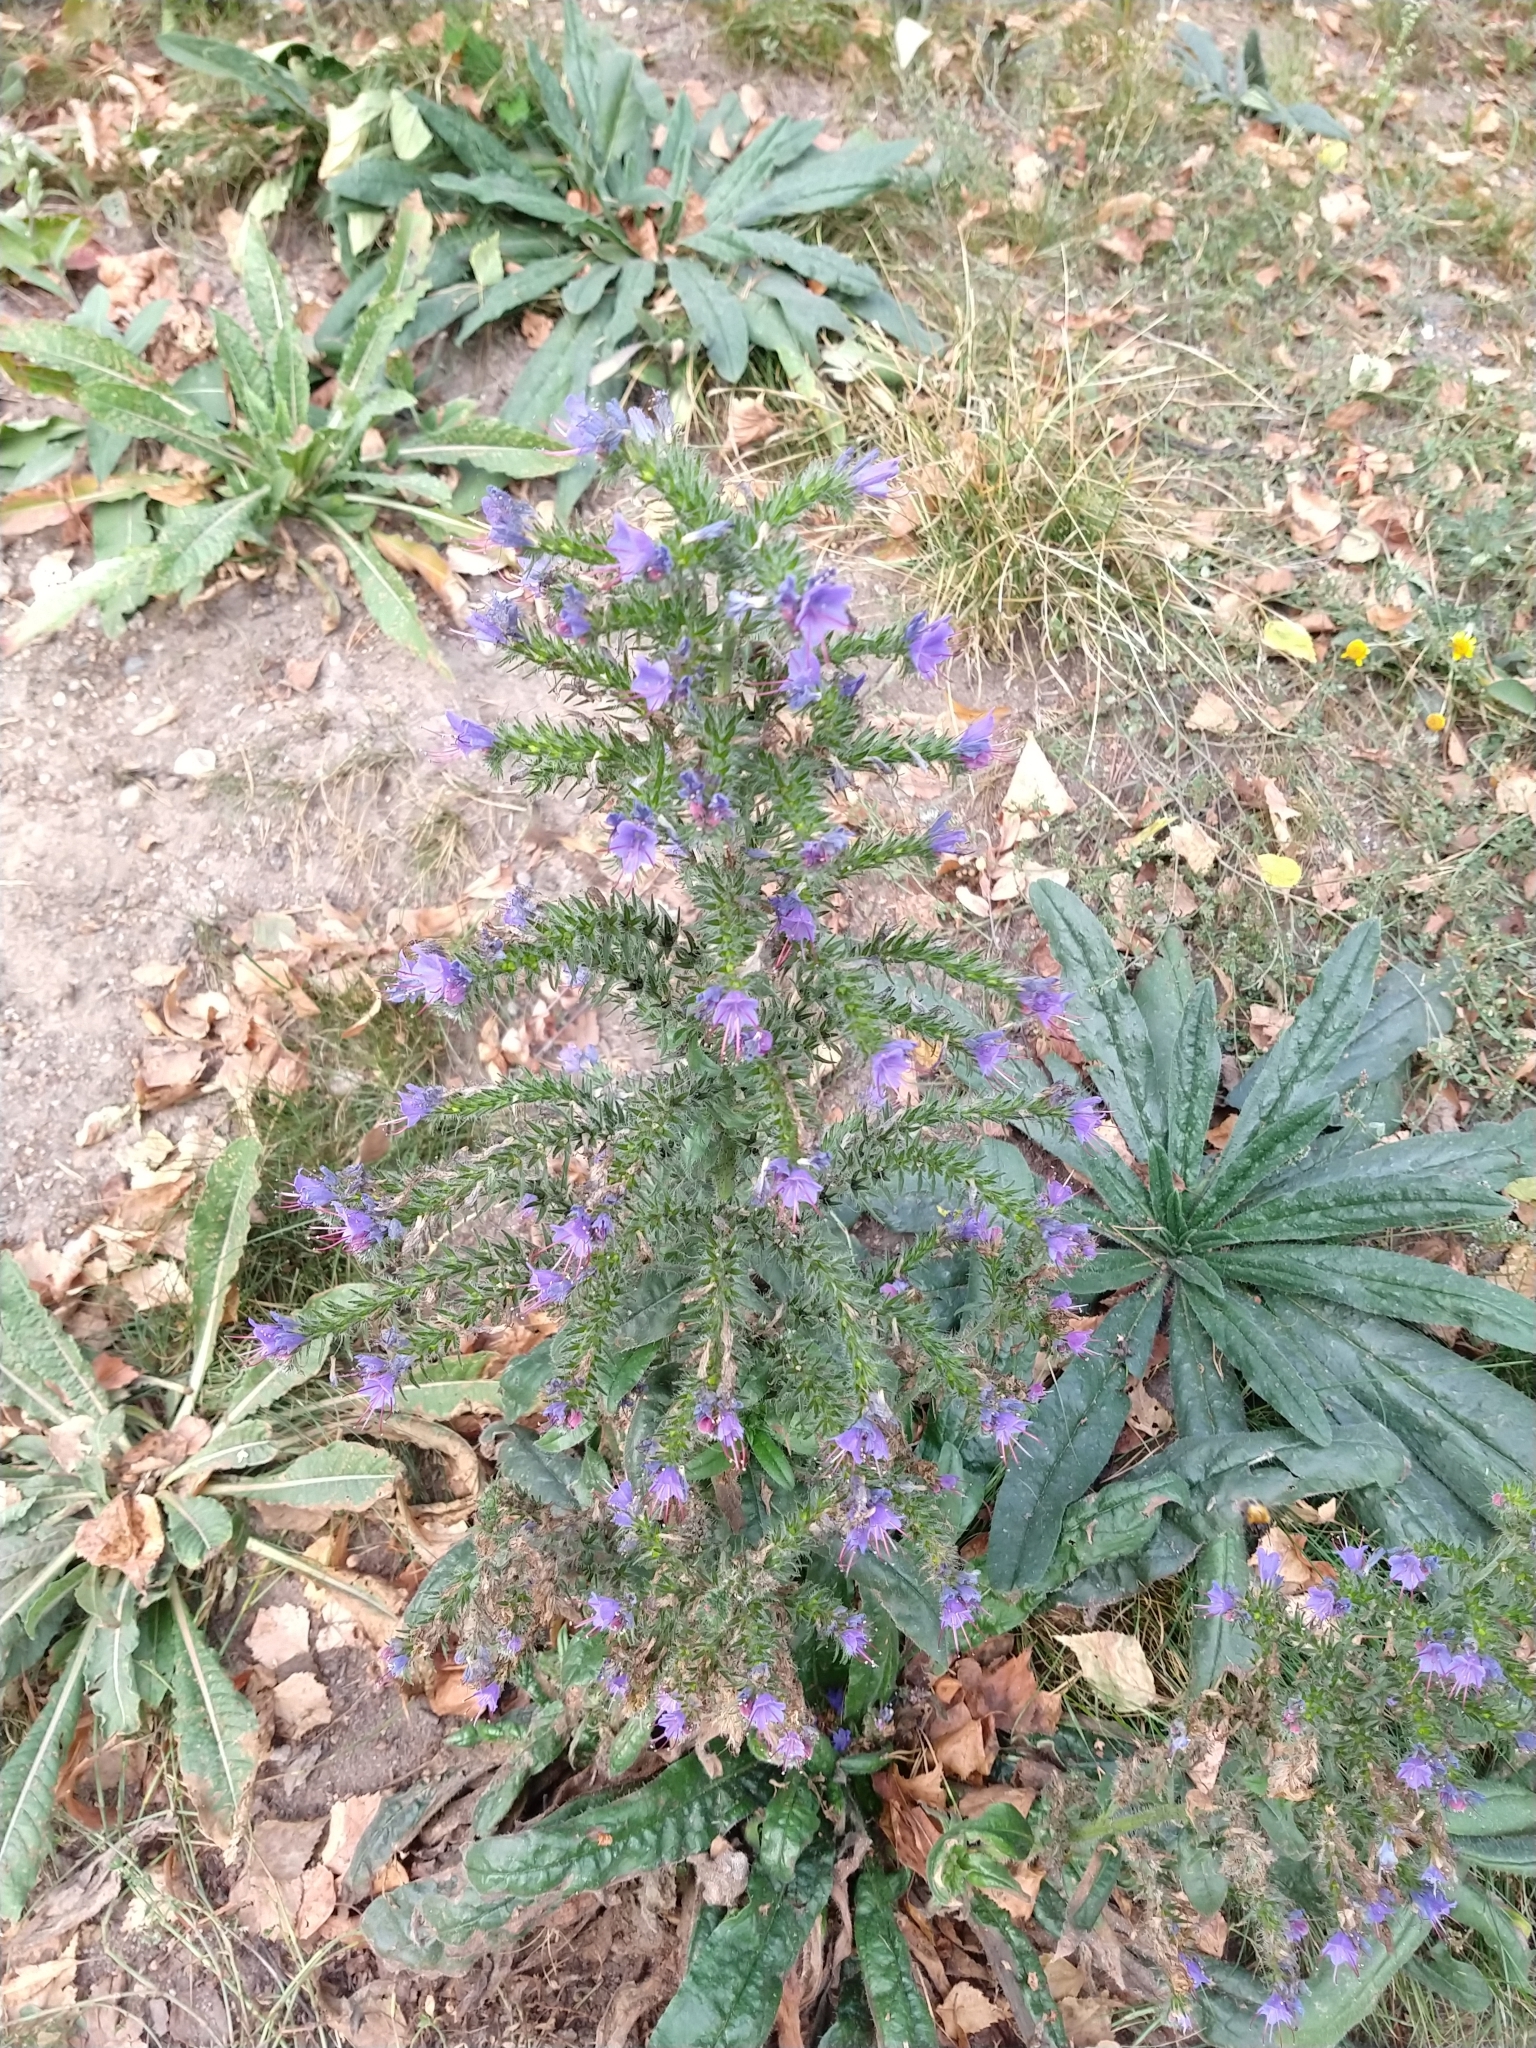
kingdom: Plantae
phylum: Tracheophyta
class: Magnoliopsida
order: Boraginales
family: Boraginaceae
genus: Echium
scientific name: Echium vulgare
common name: Common viper's bugloss
